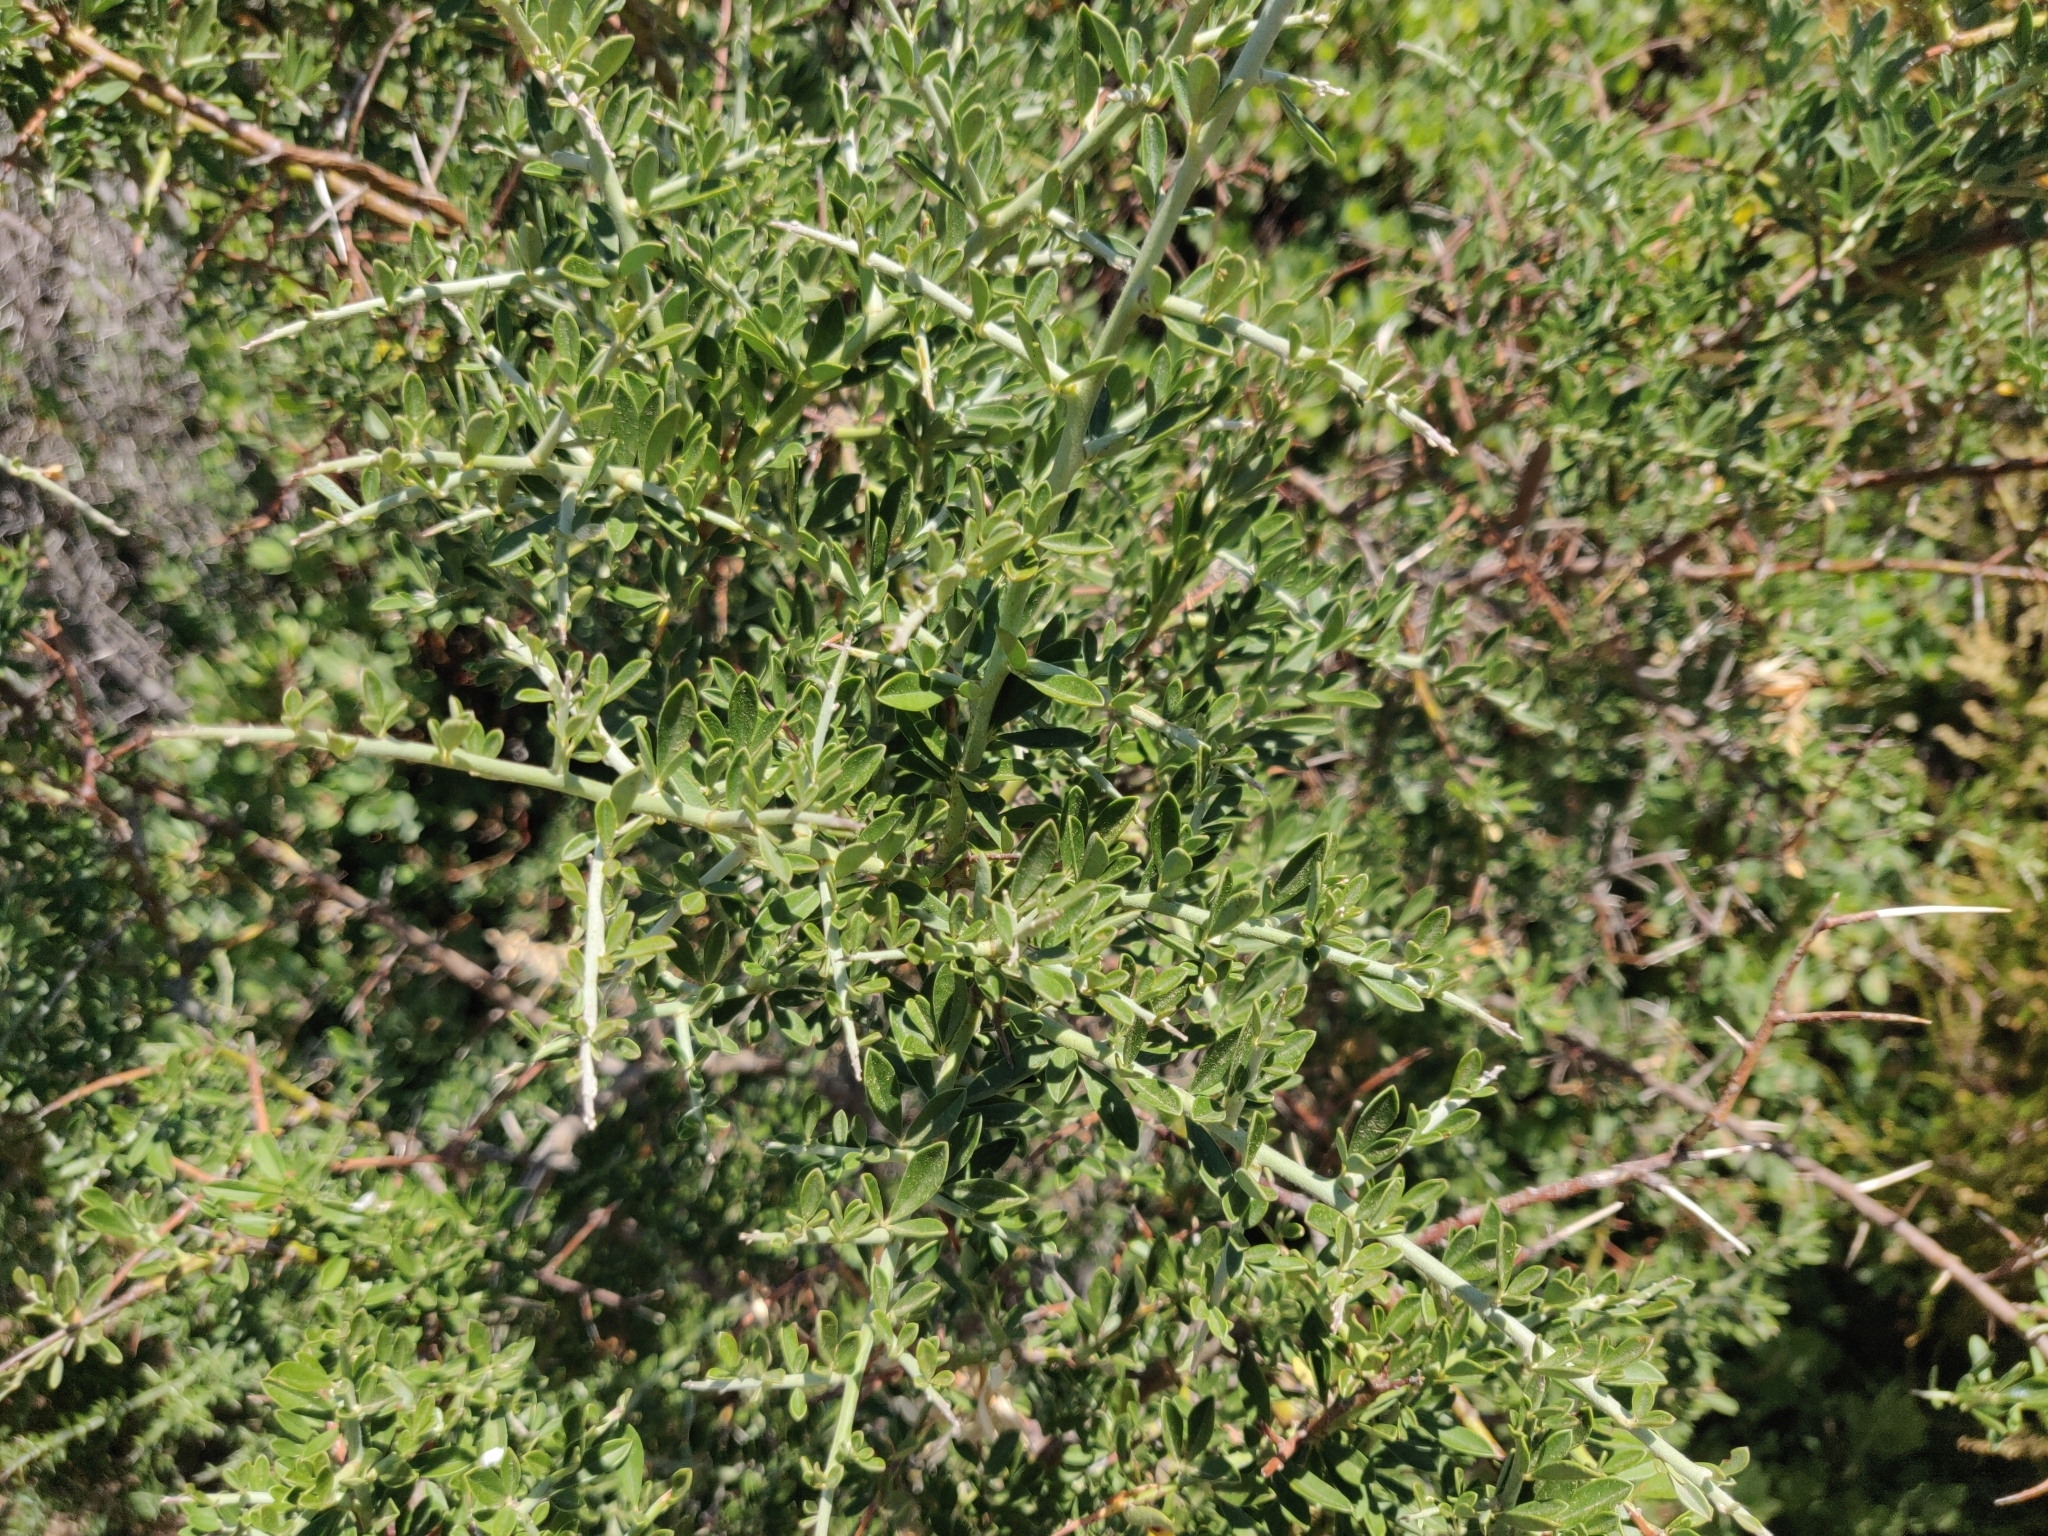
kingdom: Plantae
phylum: Tracheophyta
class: Magnoliopsida
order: Fabales
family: Fabaceae
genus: Pickeringia
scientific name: Pickeringia montana
